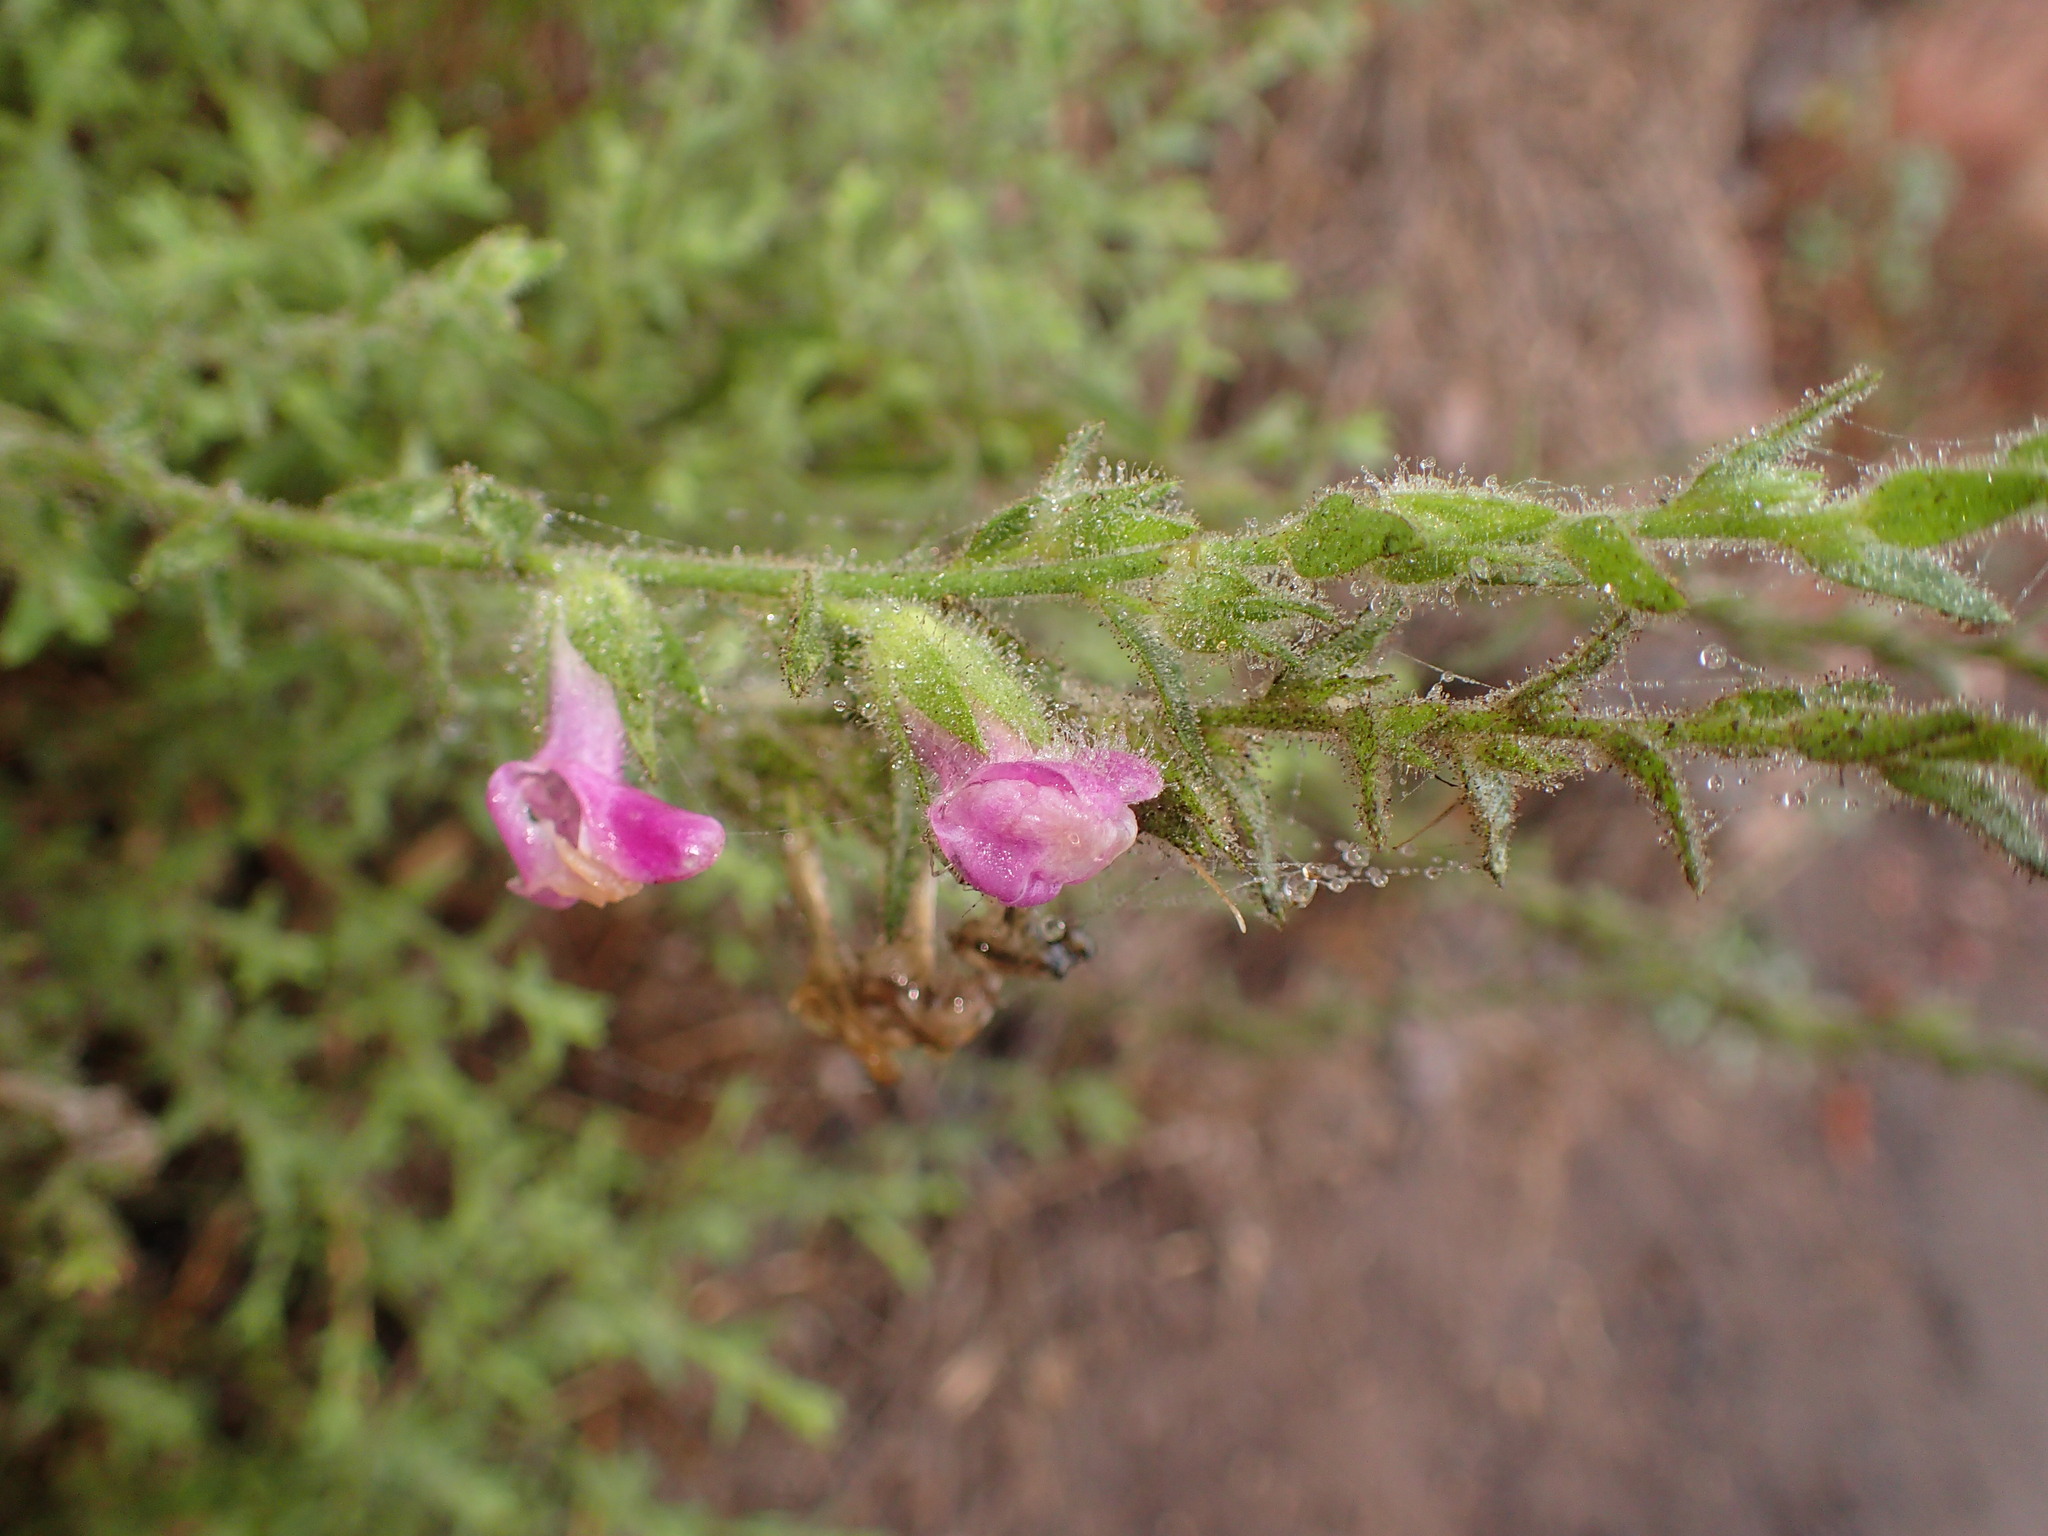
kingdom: Plantae
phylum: Tracheophyta
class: Magnoliopsida
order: Lamiales
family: Plantaginaceae
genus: Sairocarpus
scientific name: Sairocarpus multiflorus
